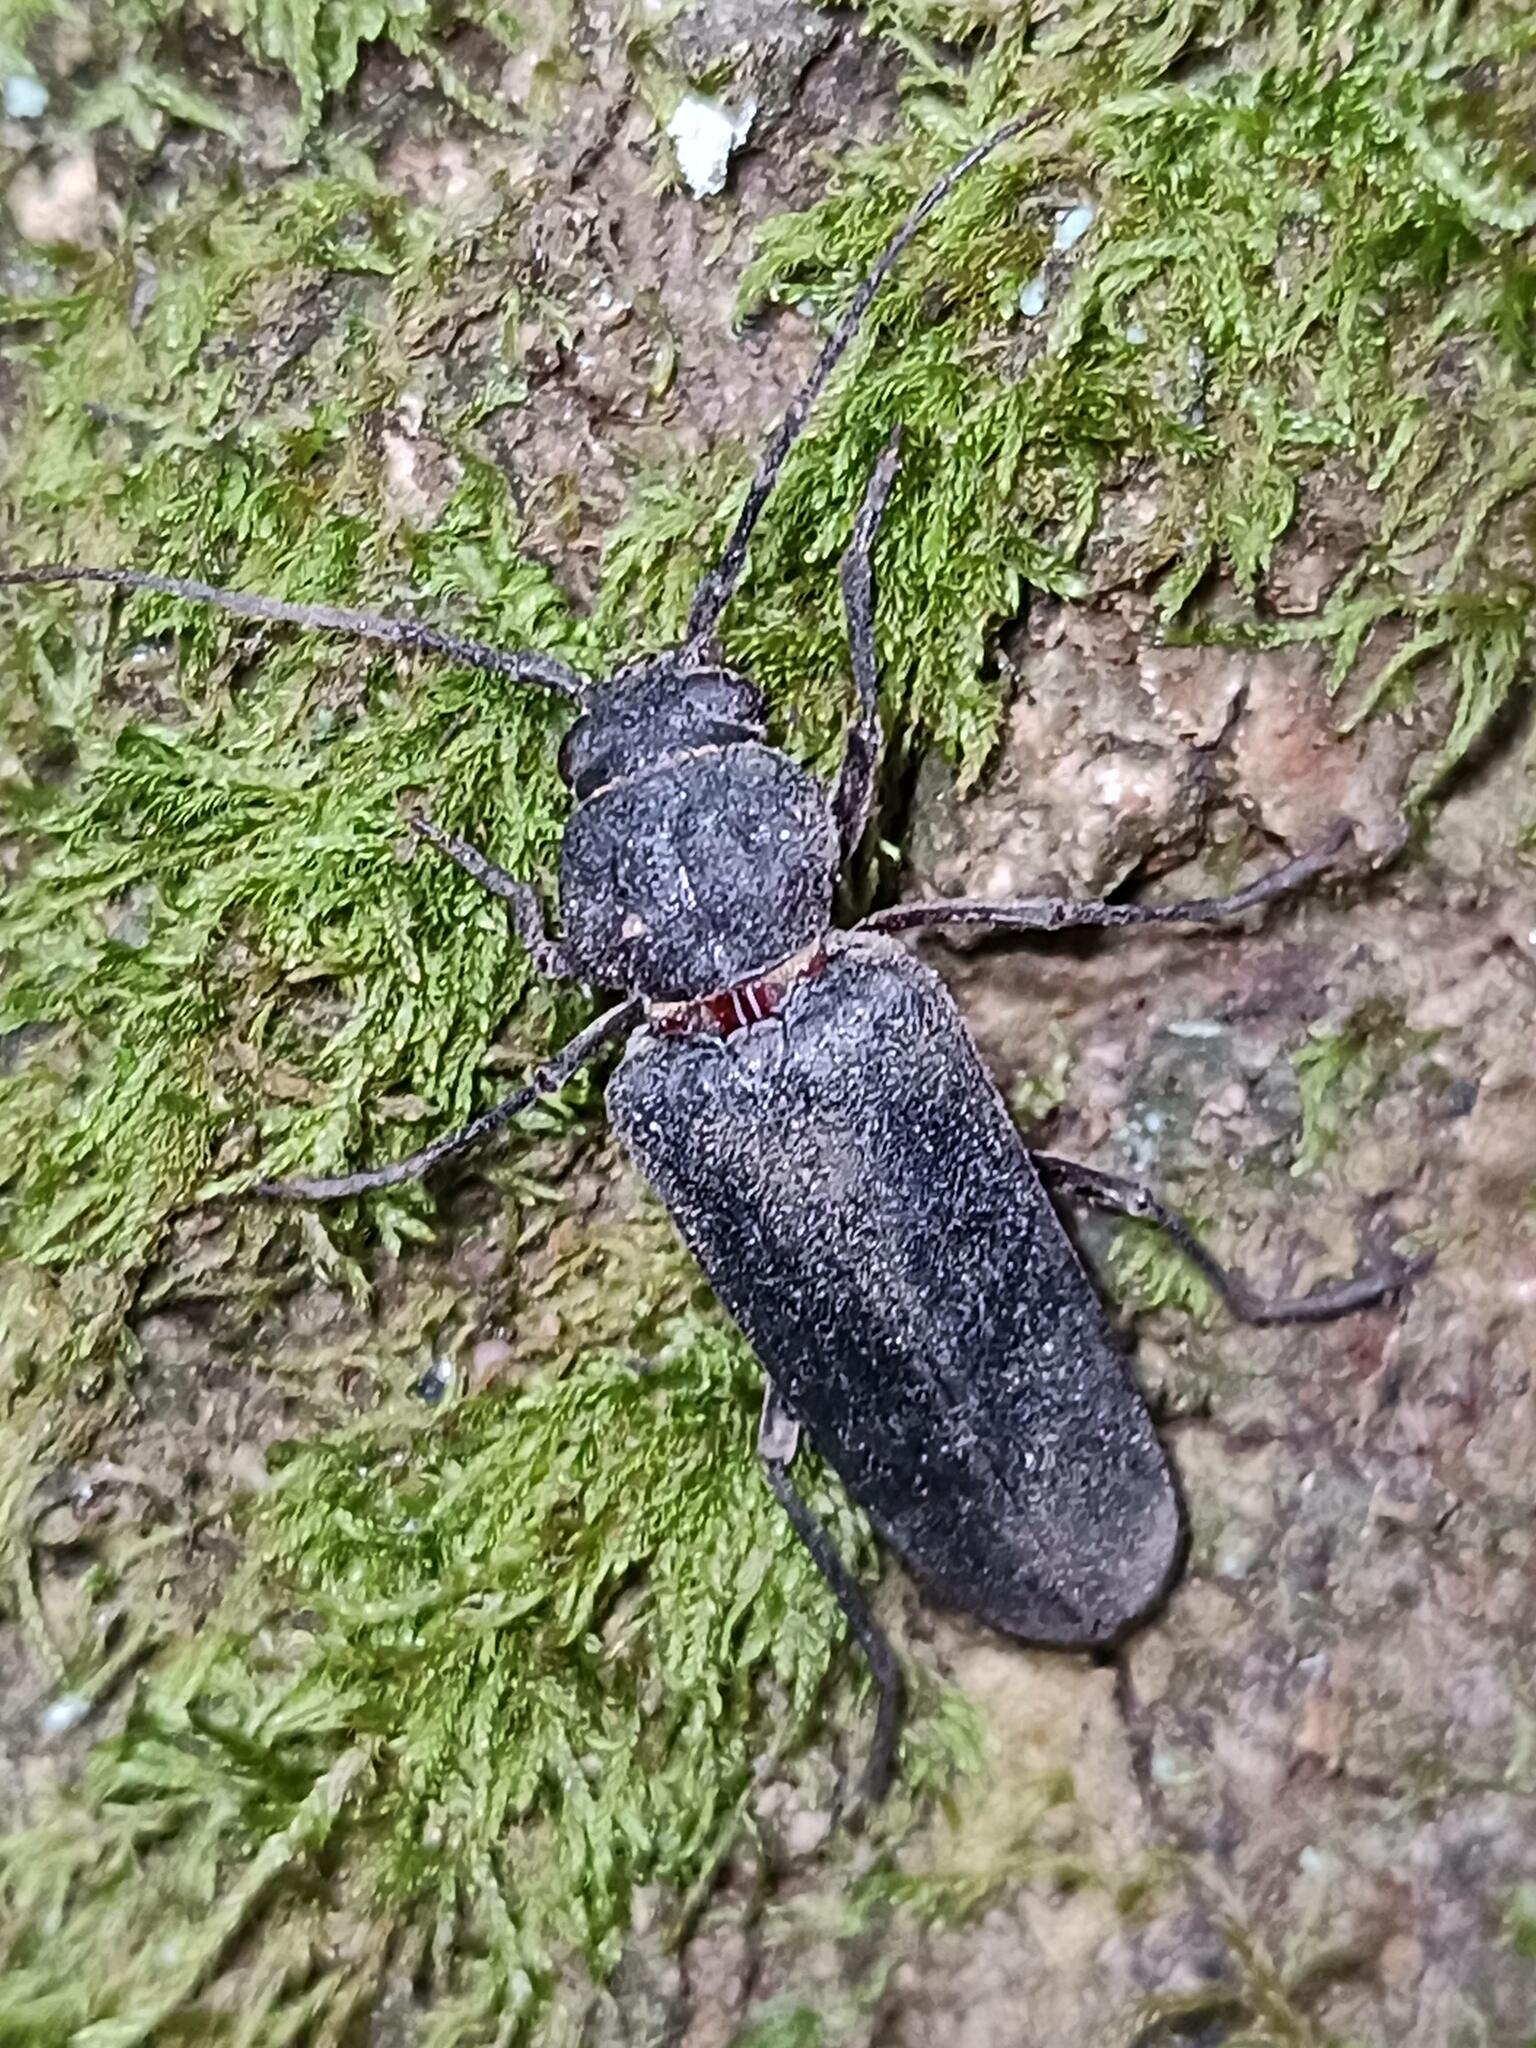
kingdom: Animalia
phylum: Arthropoda
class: Insecta
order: Coleoptera
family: Cerambycidae
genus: Arhopalus
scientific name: Arhopalus ferus
